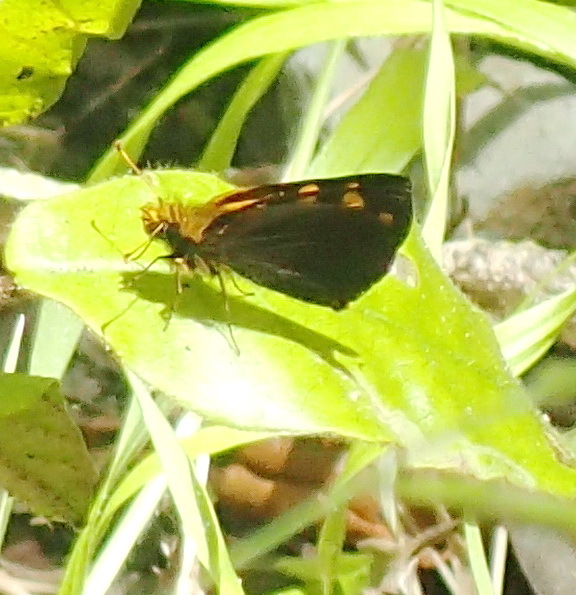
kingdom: Animalia
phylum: Arthropoda
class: Insecta
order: Lepidoptera
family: Hesperiidae
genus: Metisella
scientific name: Metisella metis
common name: Western gold-spotted sylph
